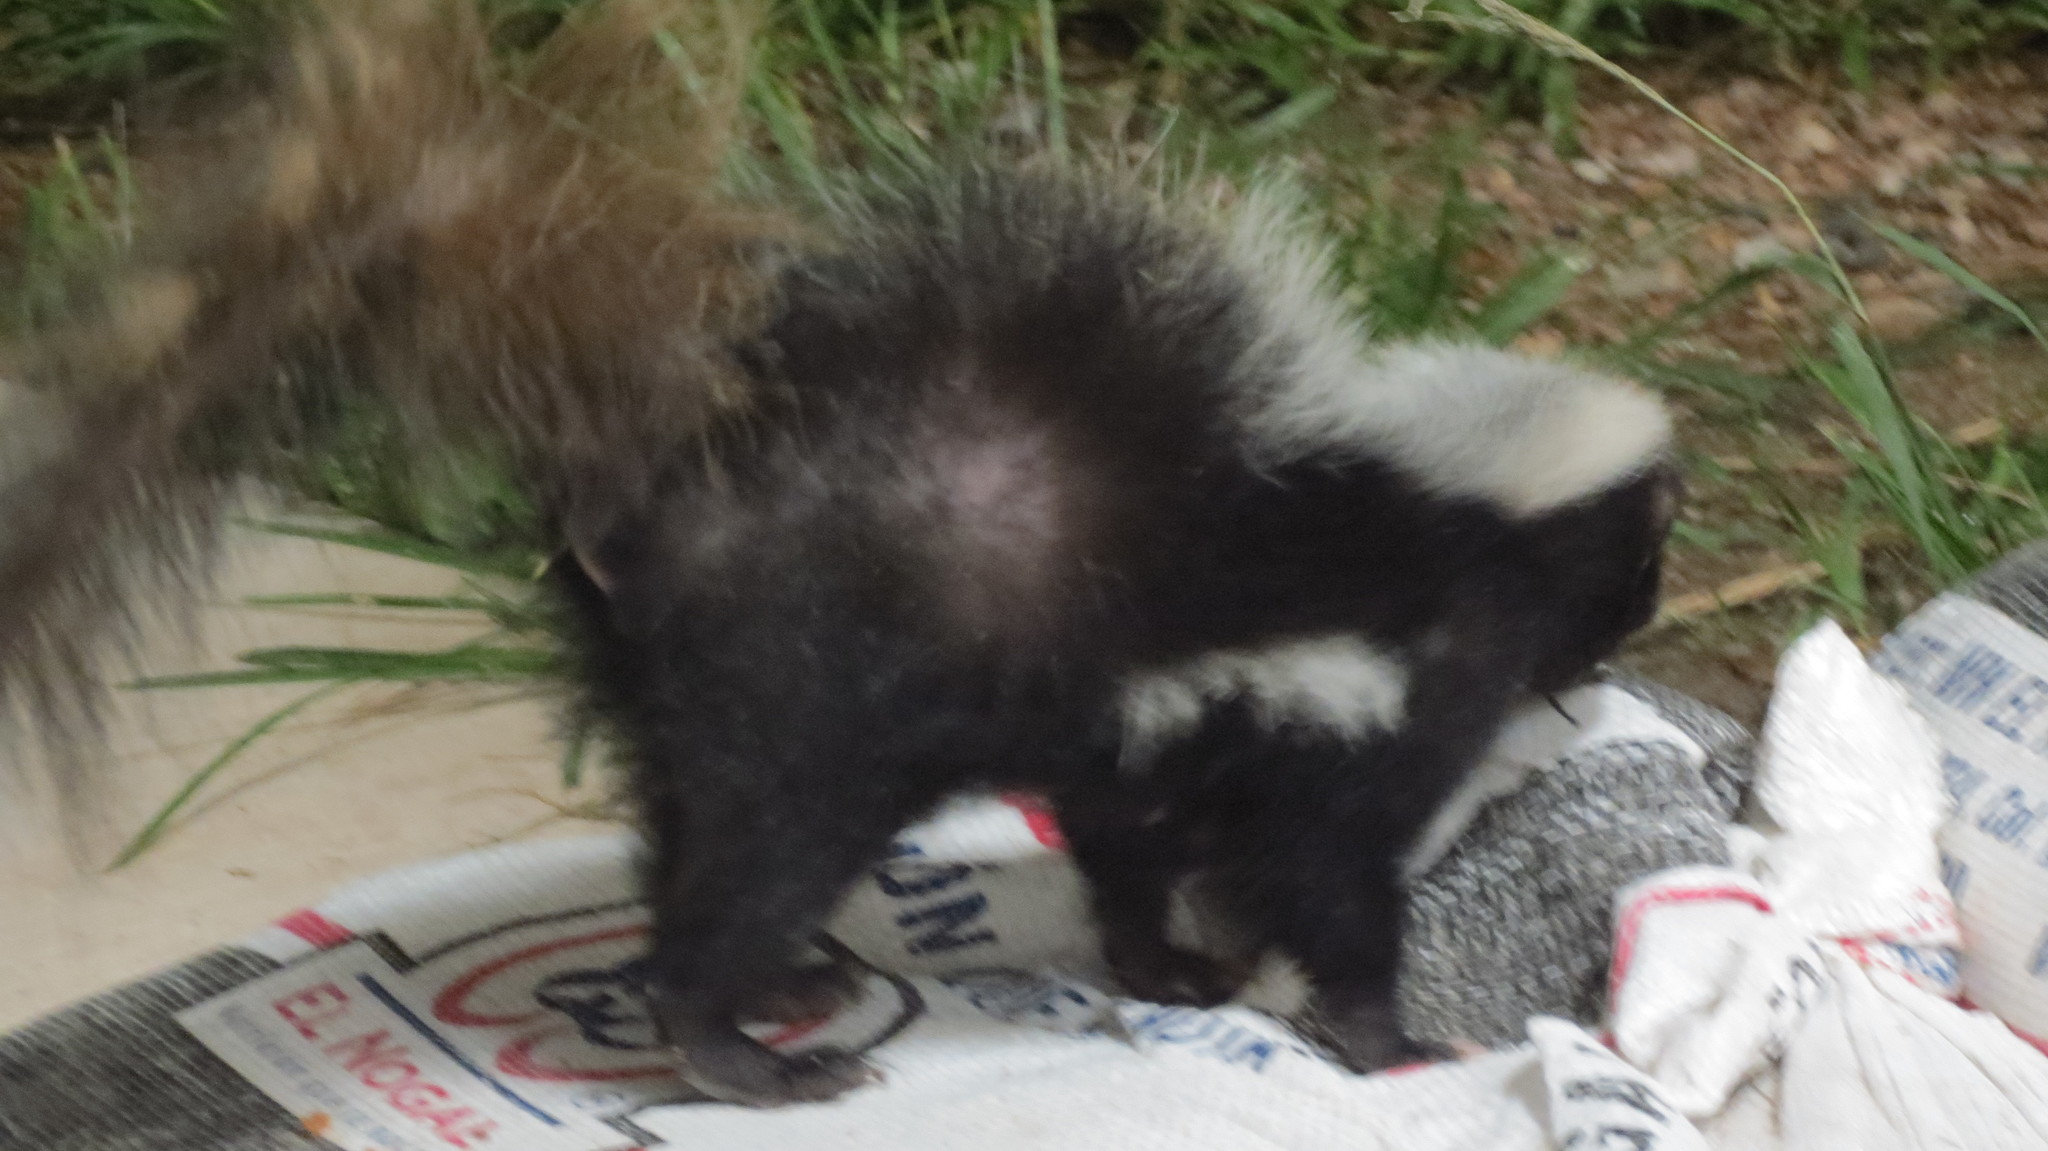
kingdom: Animalia
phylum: Chordata
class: Mammalia
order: Carnivora
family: Mephitidae
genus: Mephitis
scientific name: Mephitis macroura
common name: Hooded skunk
